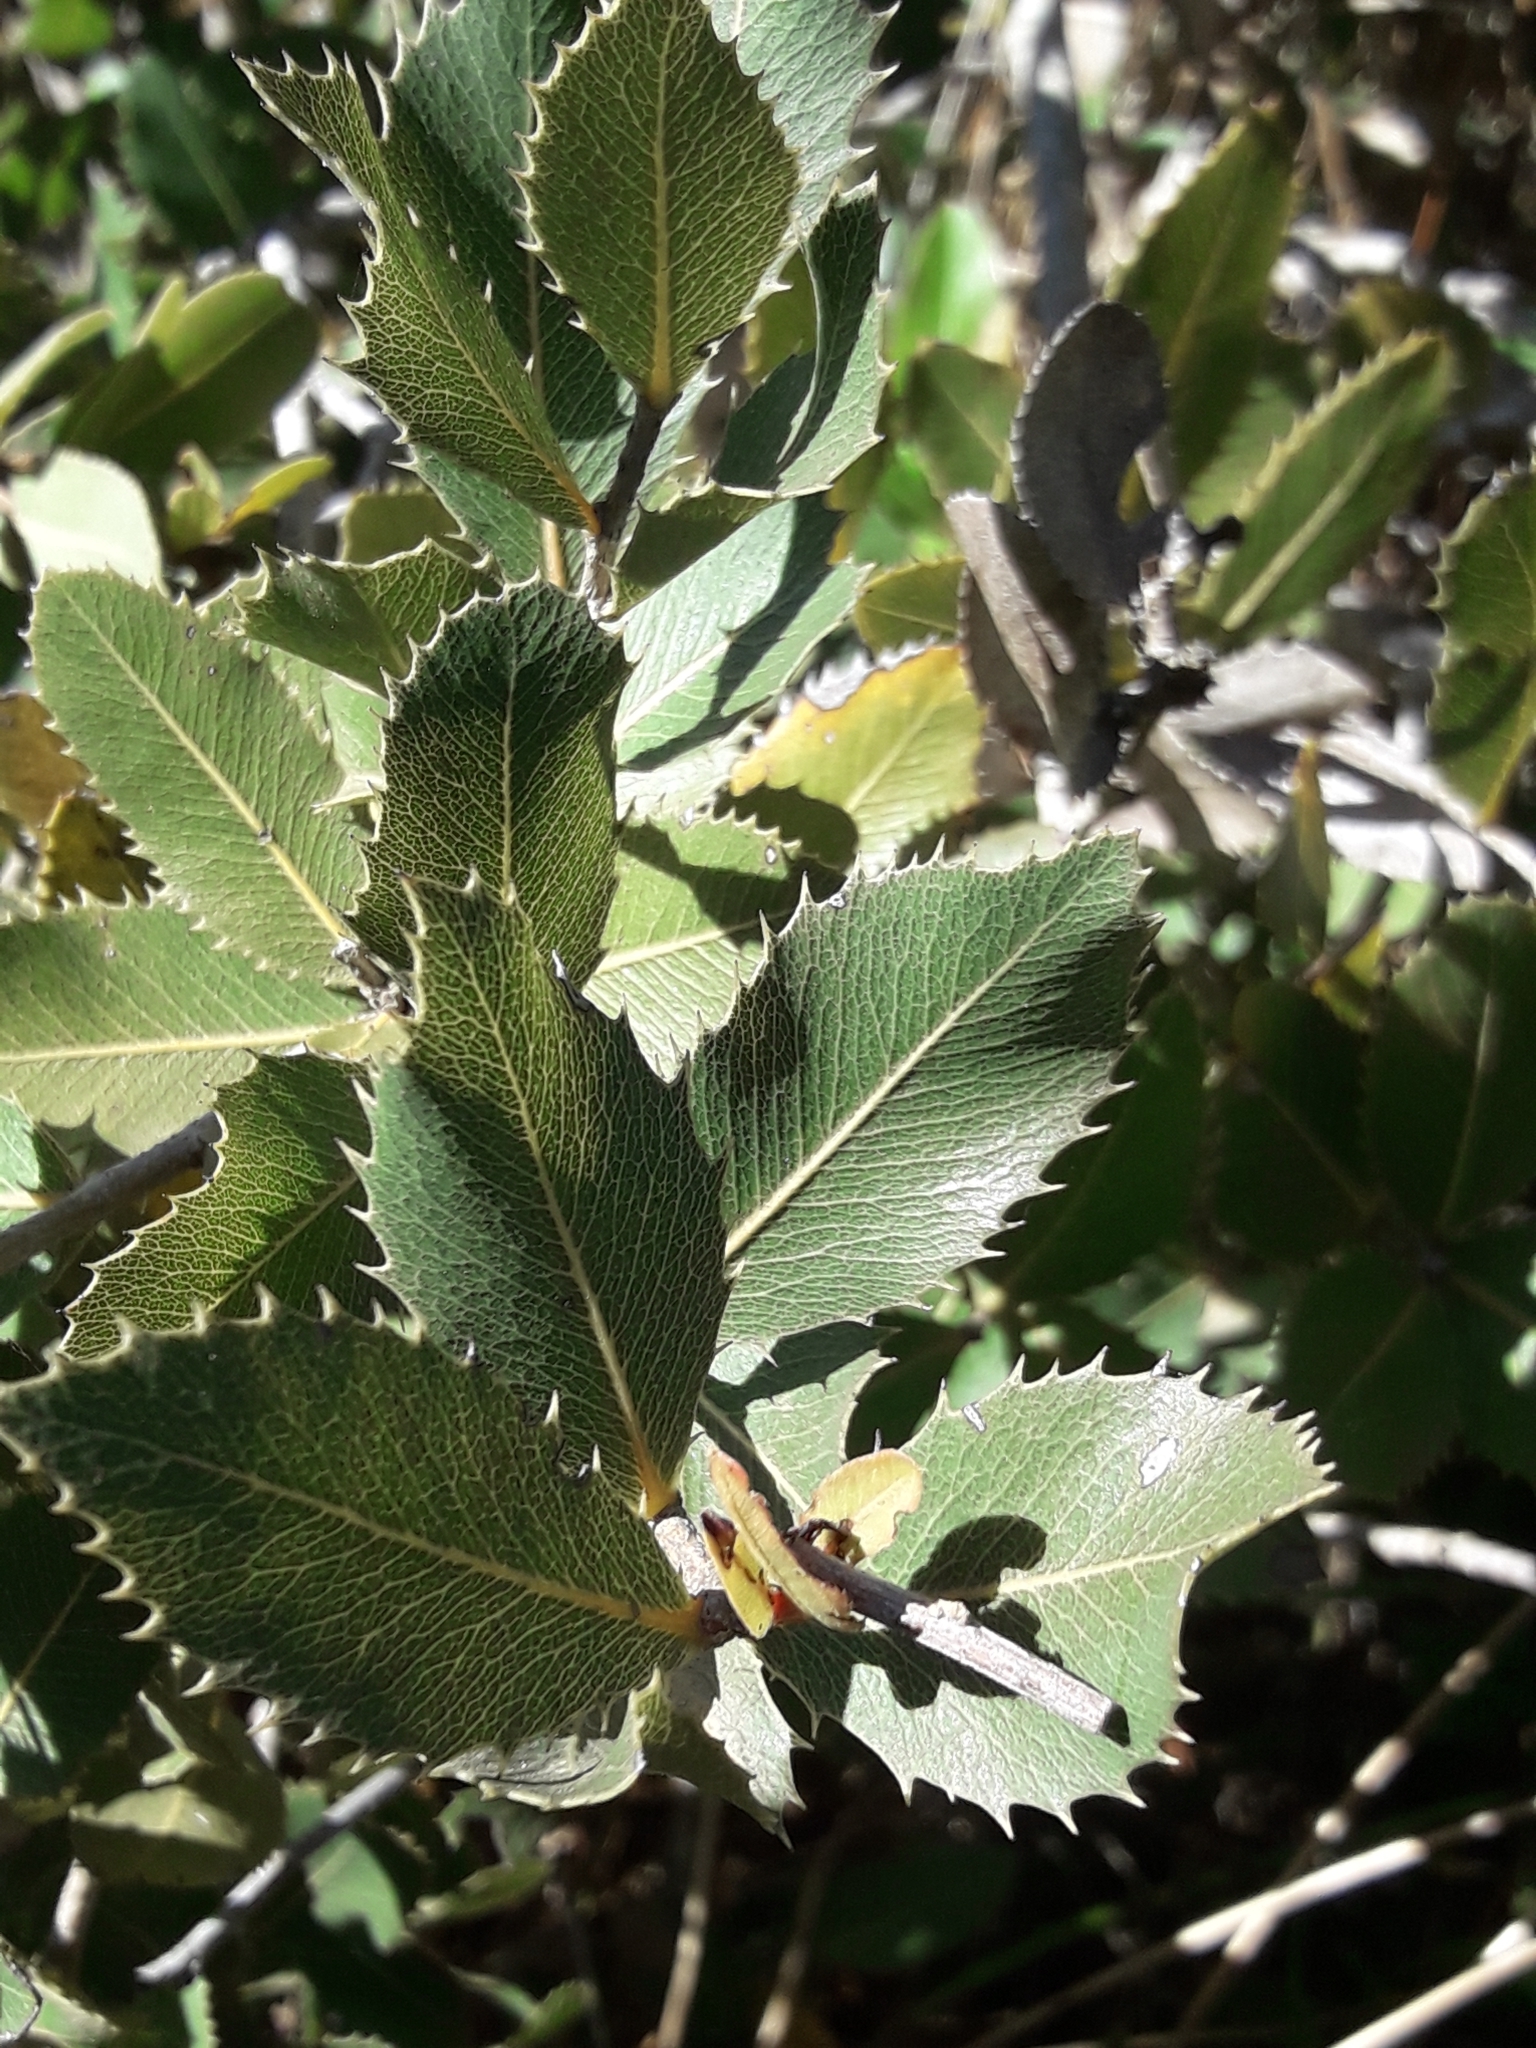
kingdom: Plantae
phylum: Tracheophyta
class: Magnoliopsida
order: Rosales
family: Rosaceae
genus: Kageneckia
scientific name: Kageneckia oblonga
